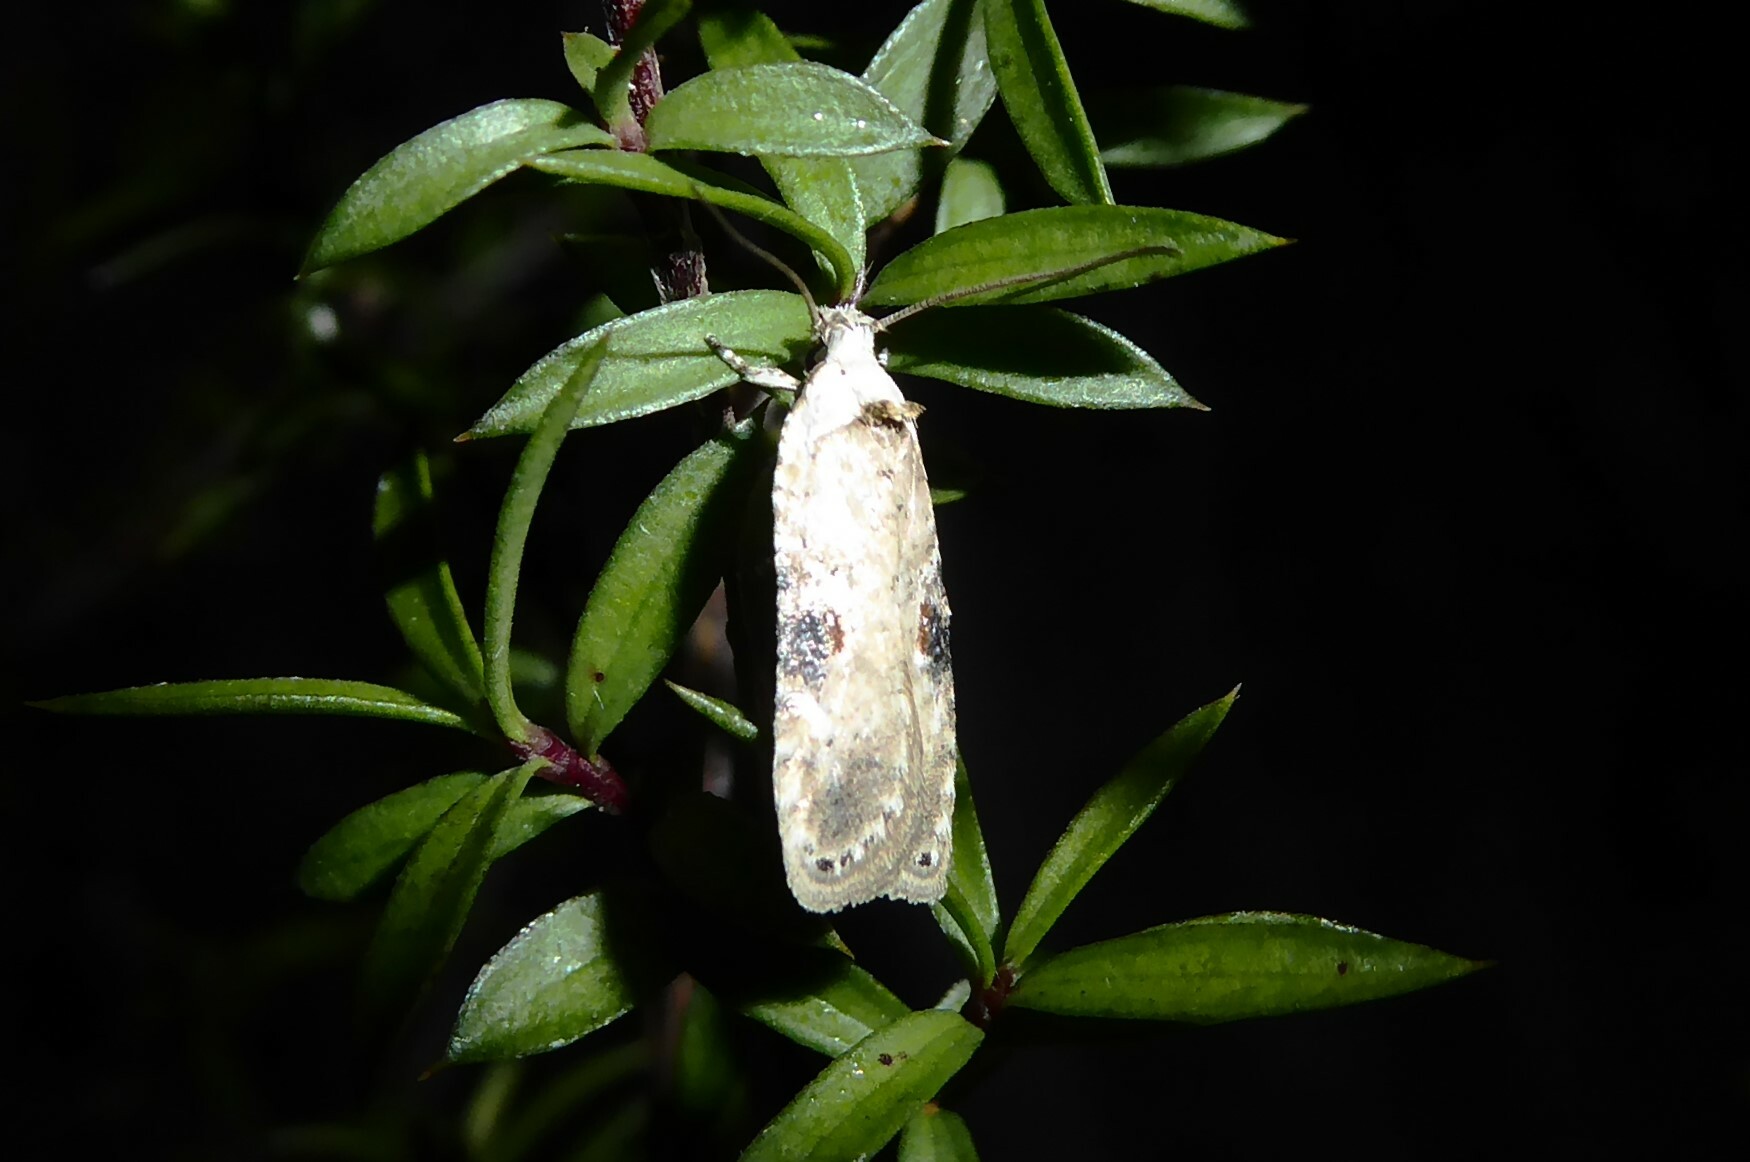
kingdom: Animalia
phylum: Arthropoda
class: Insecta
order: Lepidoptera
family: Depressariidae
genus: Agonopterix
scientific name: Agonopterix alstroemeriana
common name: Moth
